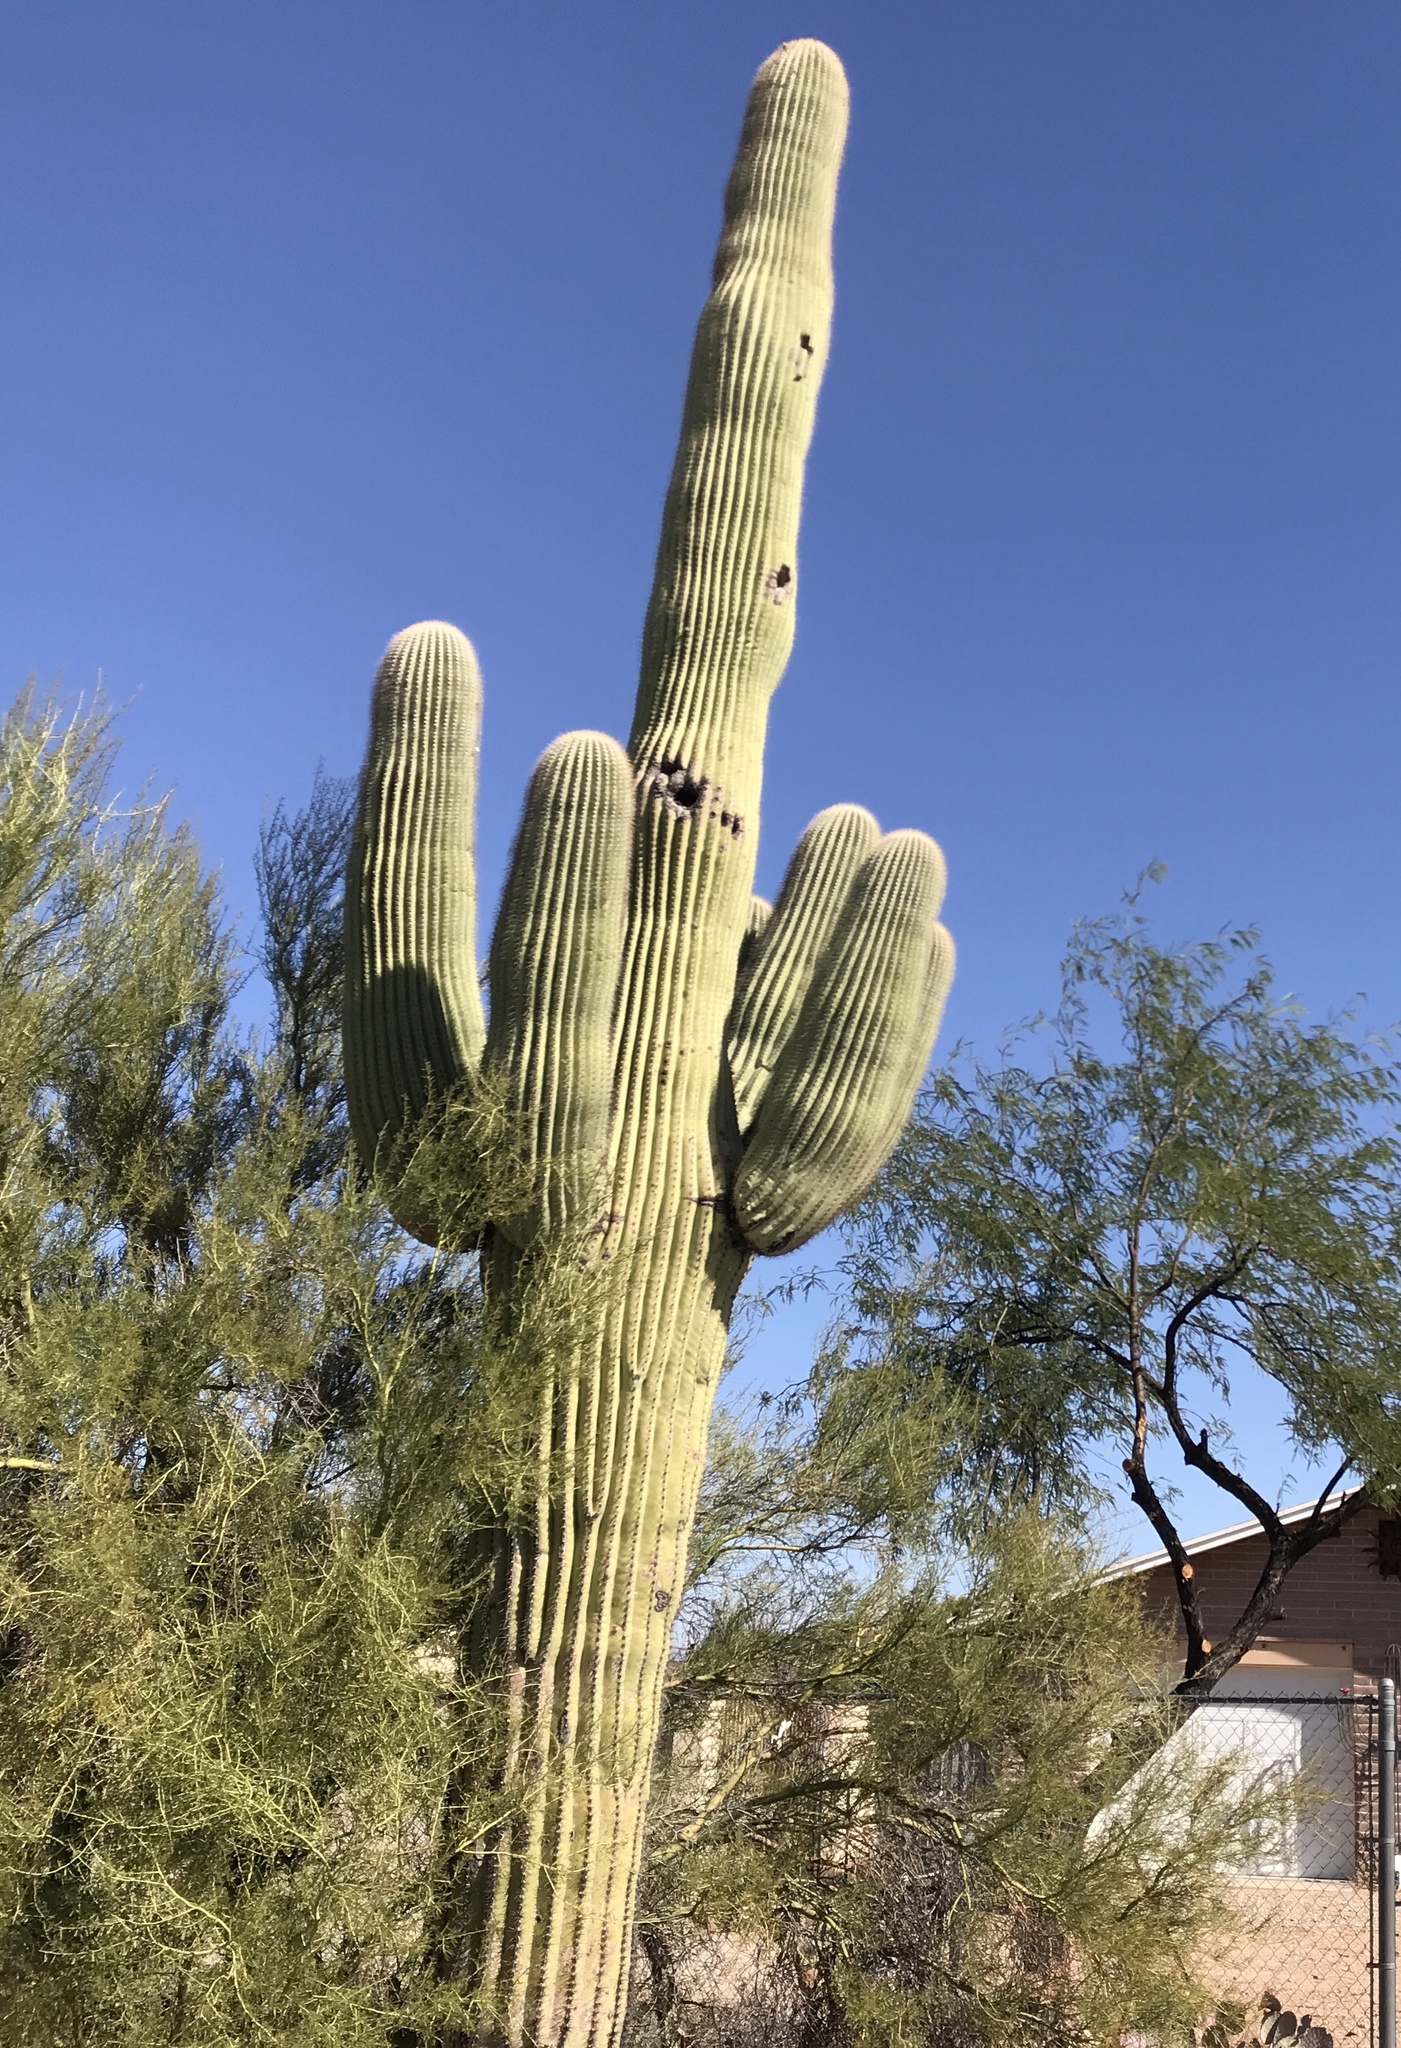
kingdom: Plantae
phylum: Tracheophyta
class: Magnoliopsida
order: Caryophyllales
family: Cactaceae
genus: Carnegiea
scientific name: Carnegiea gigantea
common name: Saguaro
